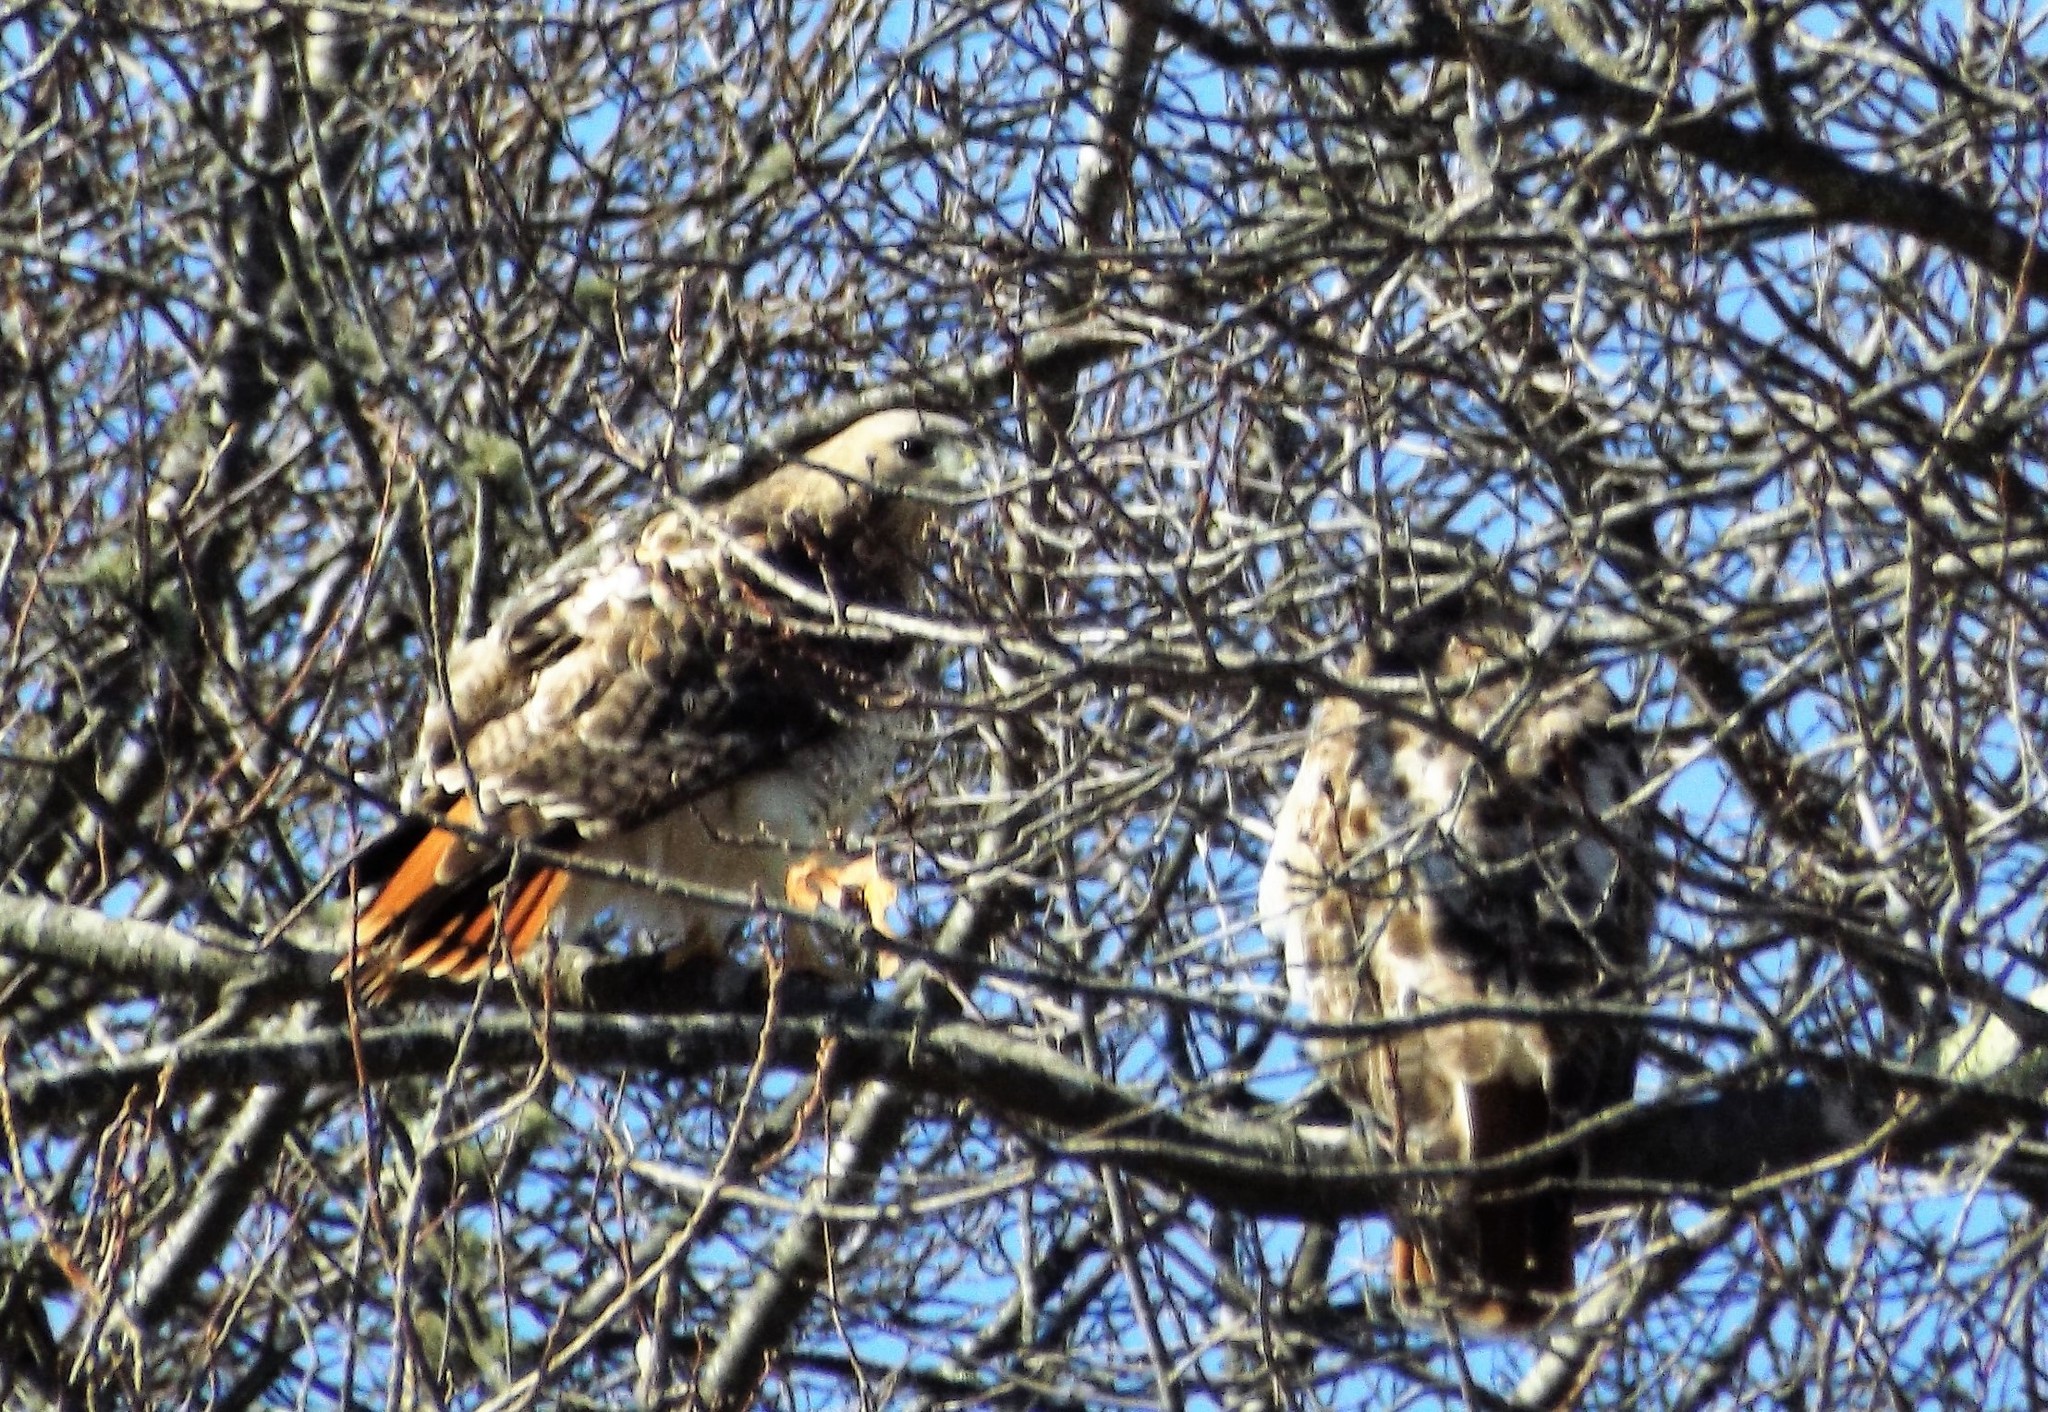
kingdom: Animalia
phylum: Chordata
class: Aves
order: Accipitriformes
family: Accipitridae
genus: Buteo
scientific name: Buteo jamaicensis
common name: Red-tailed hawk
